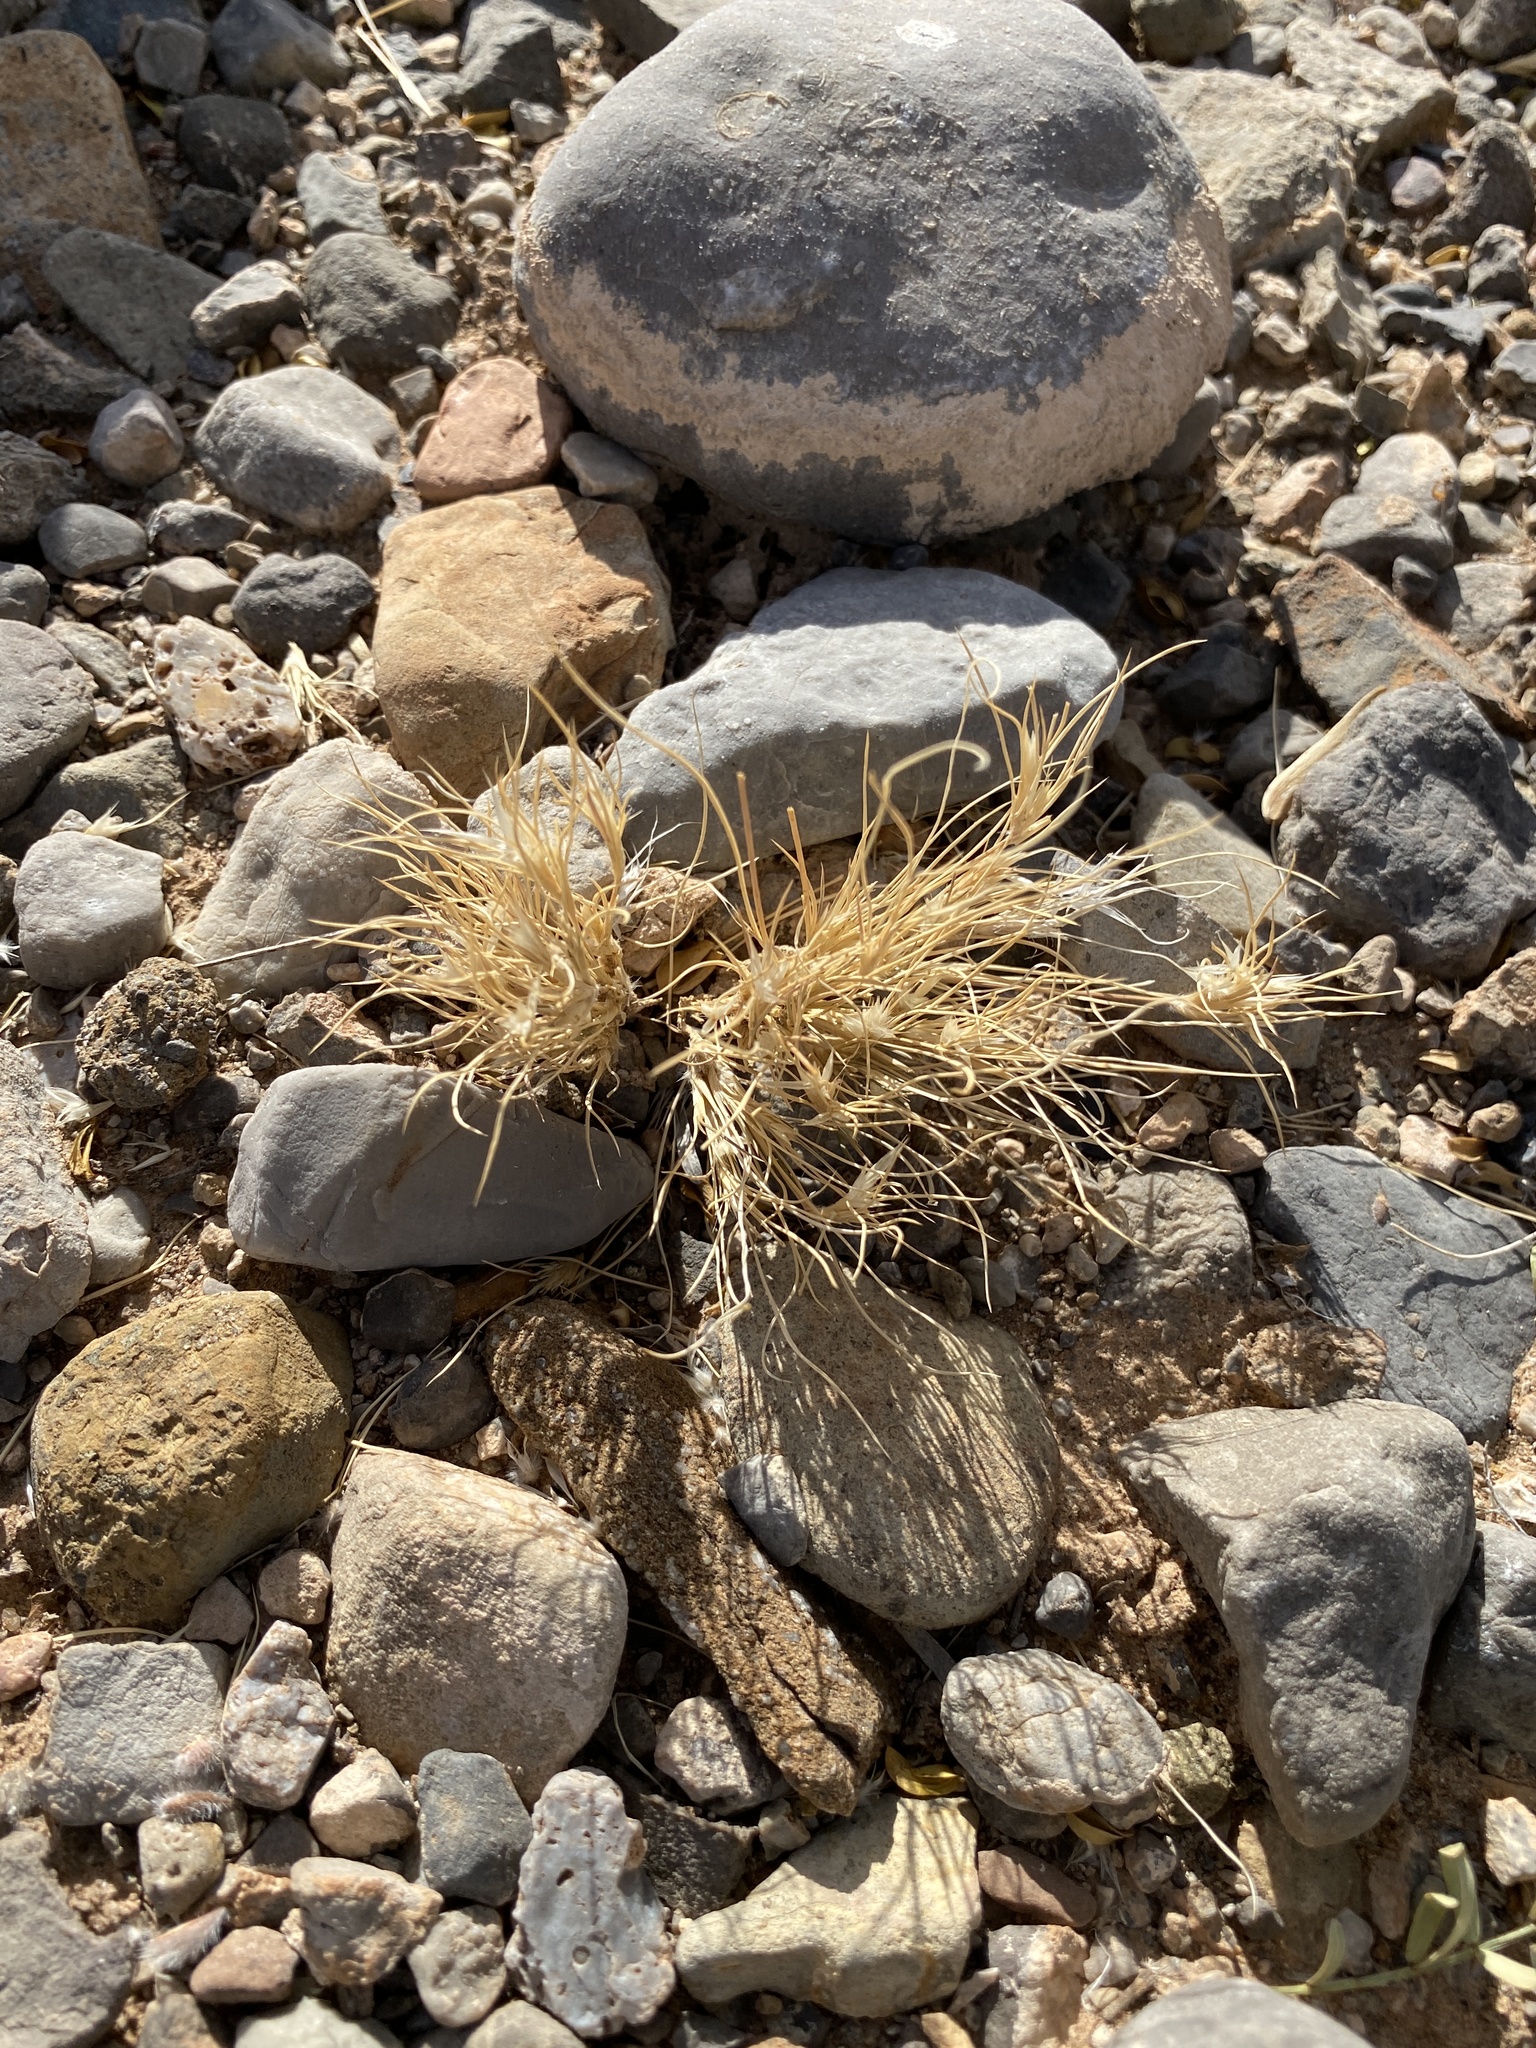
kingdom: Plantae
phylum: Tracheophyta
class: Liliopsida
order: Poales
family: Poaceae
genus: Dasyochloa
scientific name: Dasyochloa pulchella
